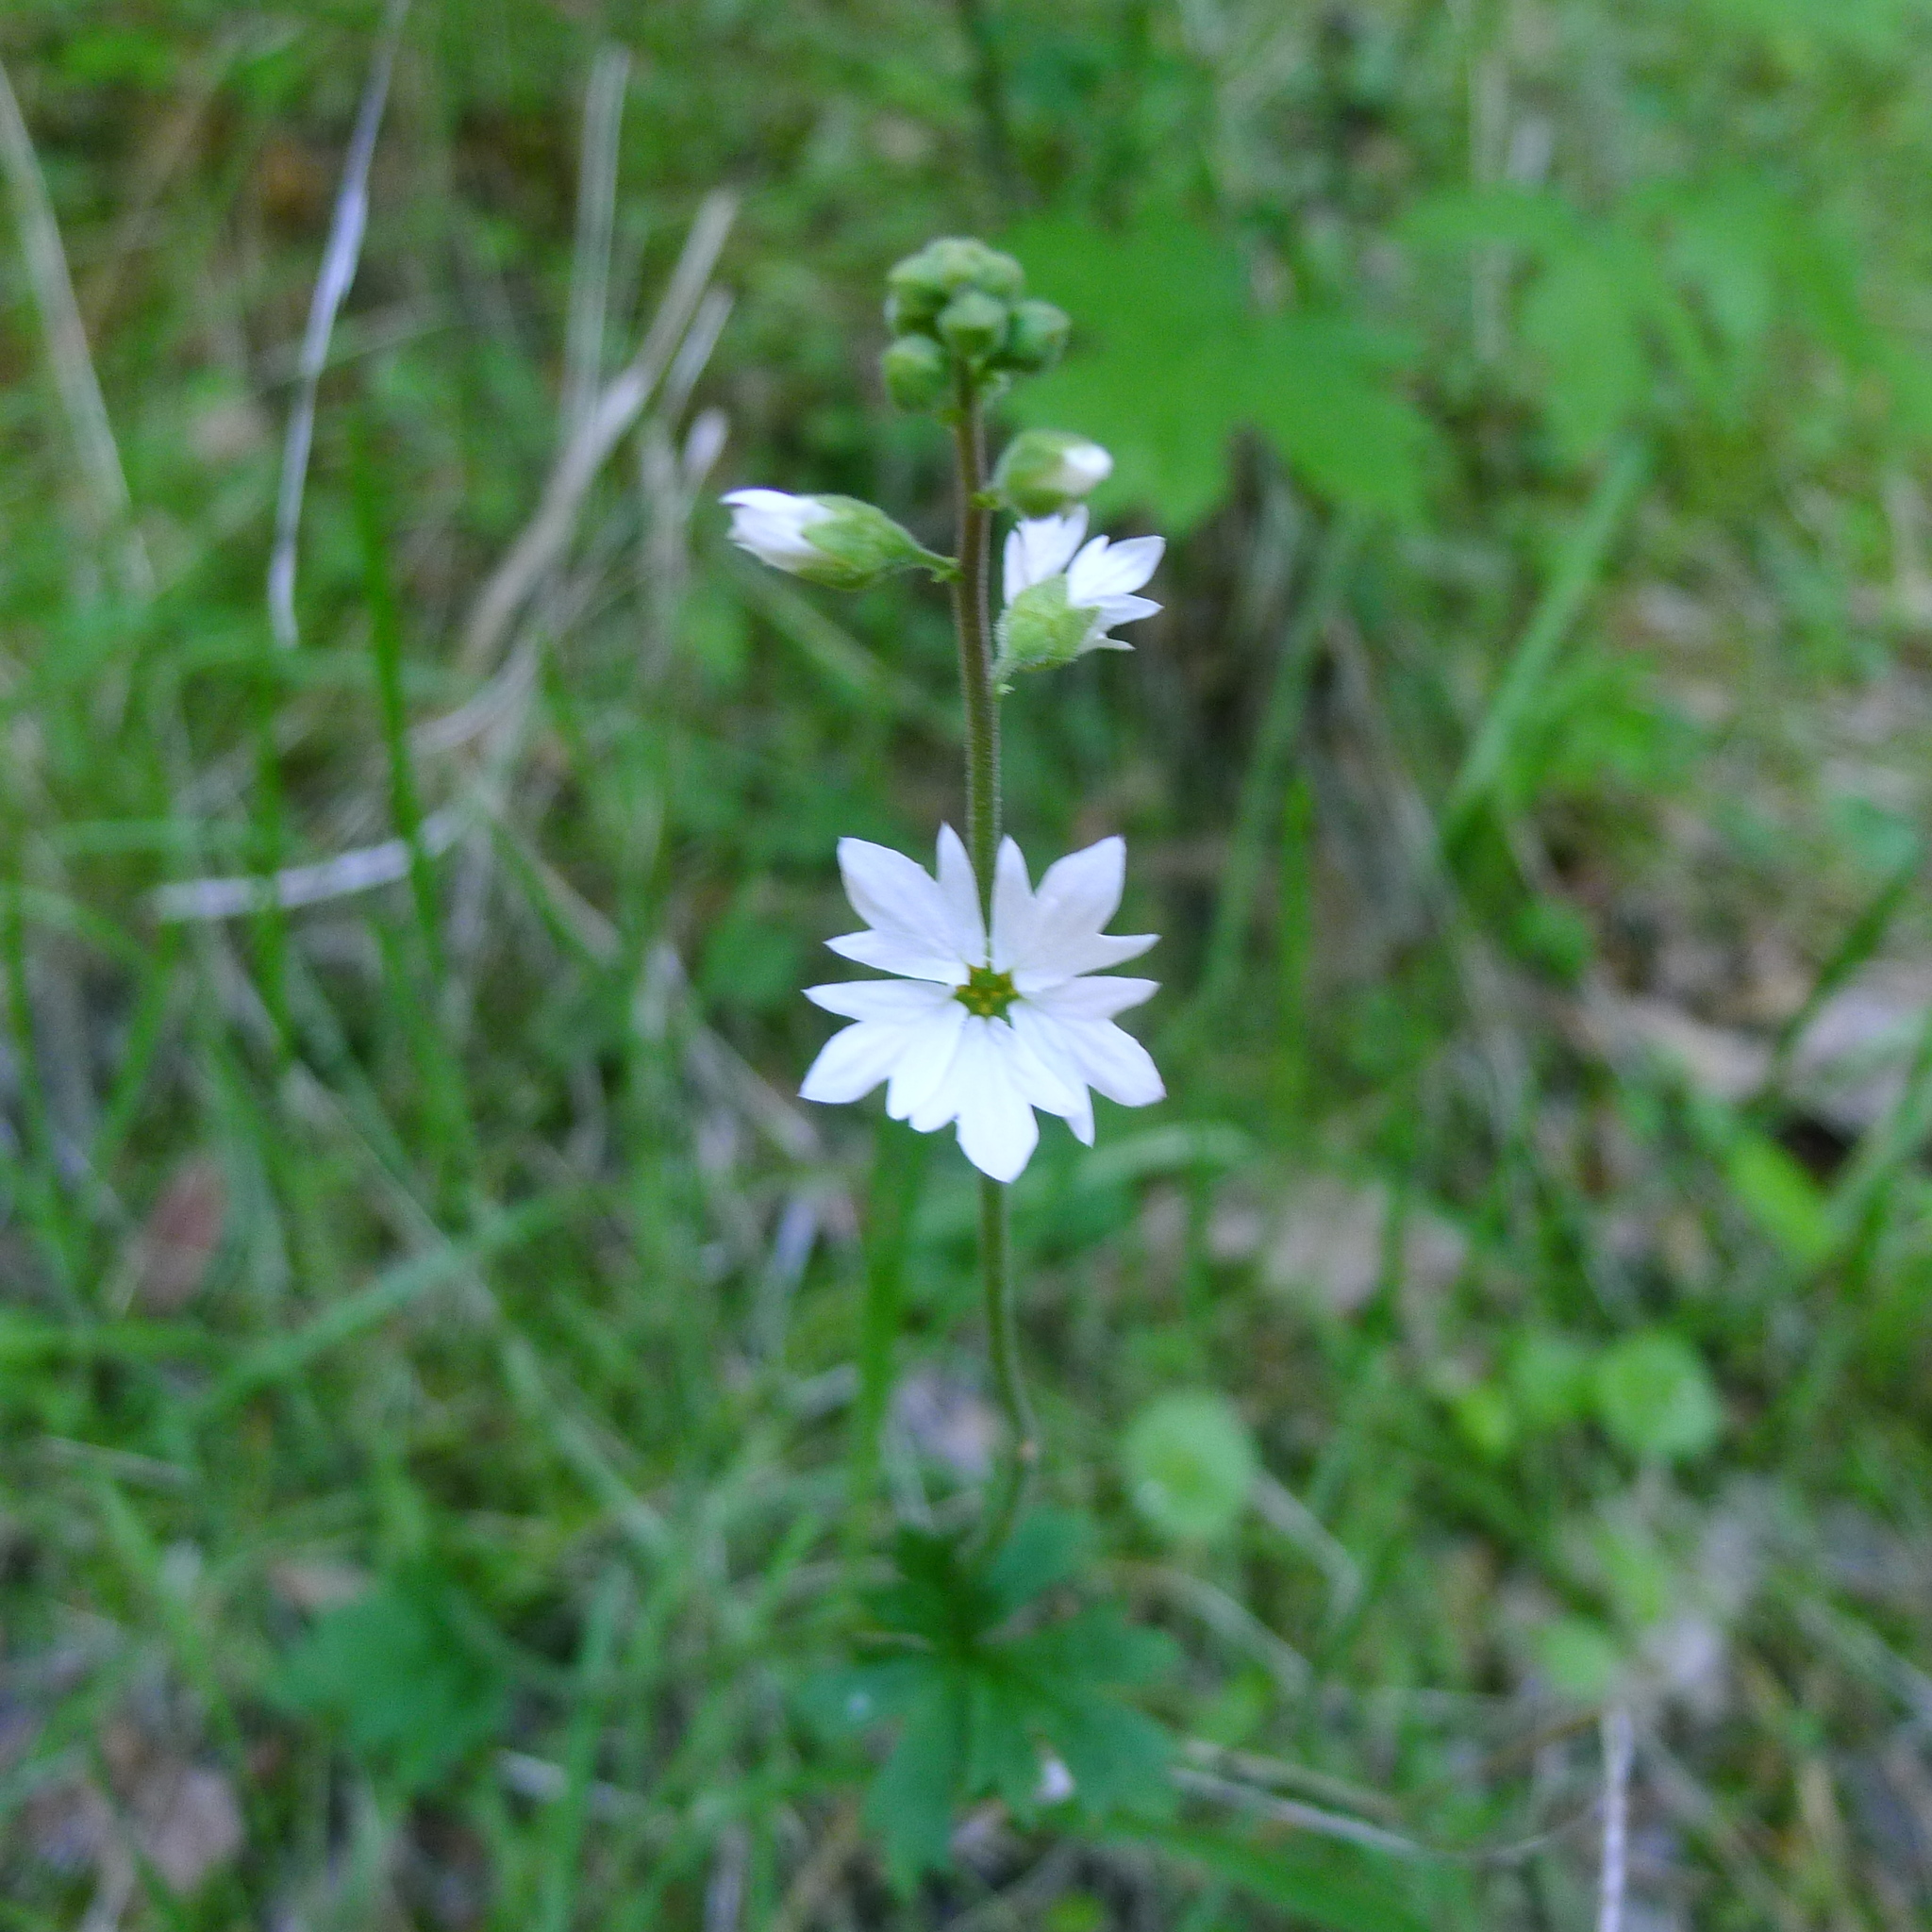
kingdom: Plantae
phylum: Tracheophyta
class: Magnoliopsida
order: Saxifragales
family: Saxifragaceae
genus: Lithophragma
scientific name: Lithophragma affine
